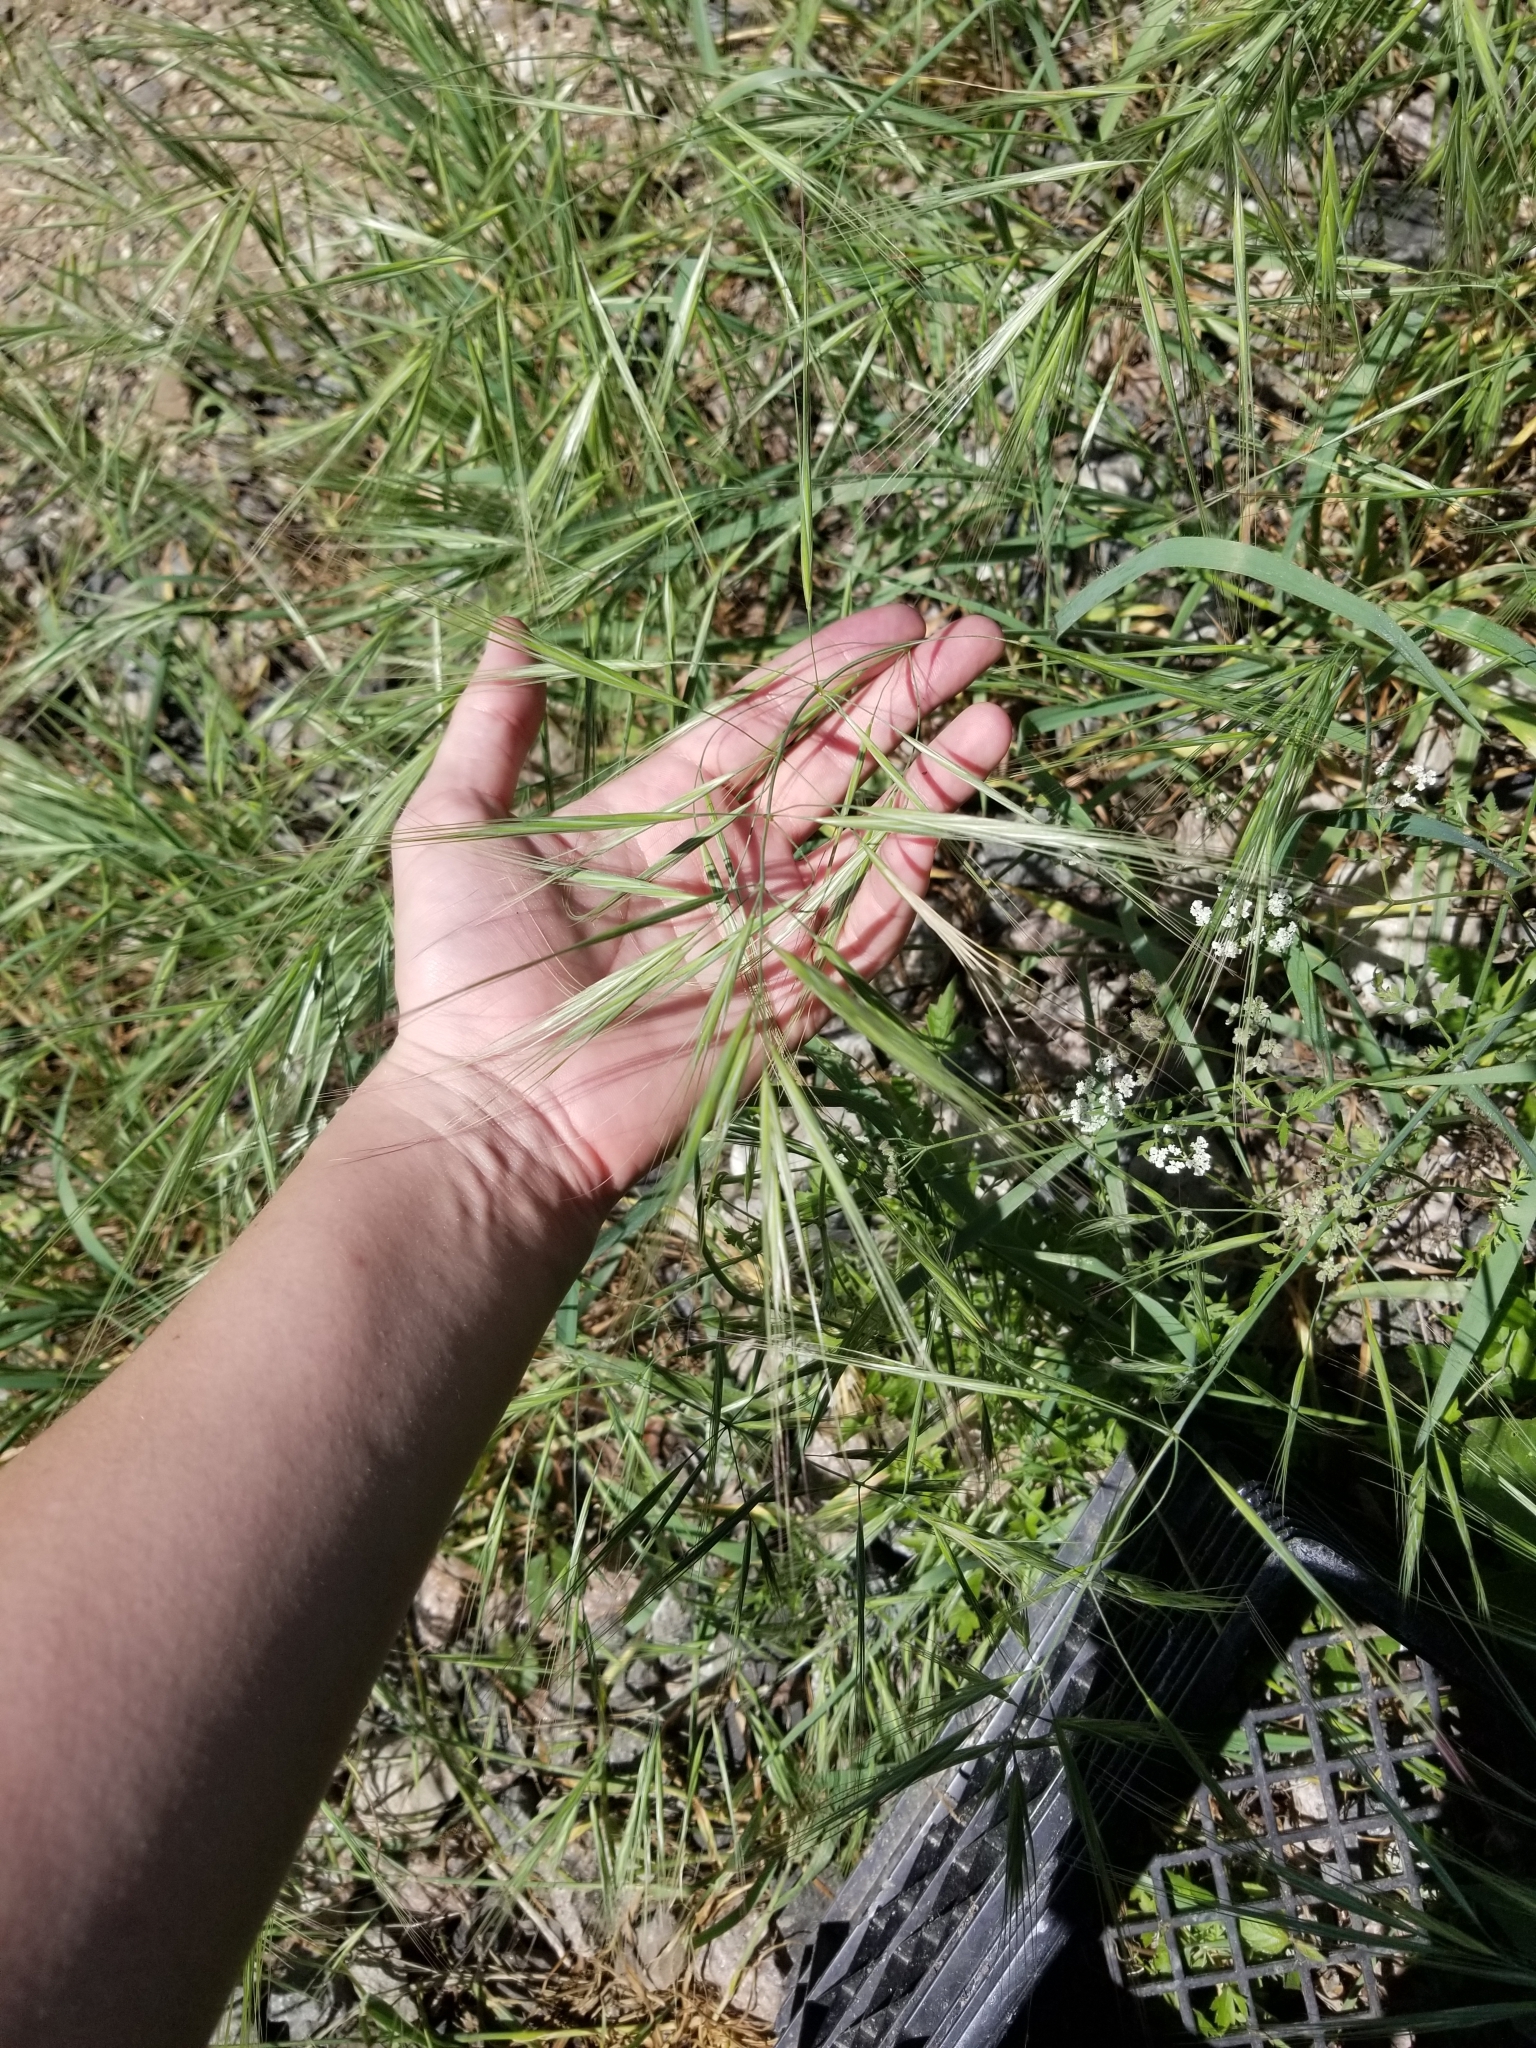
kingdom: Plantae
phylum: Tracheophyta
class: Liliopsida
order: Poales
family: Poaceae
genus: Bromus
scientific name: Bromus diandrus
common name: Ripgut brome
